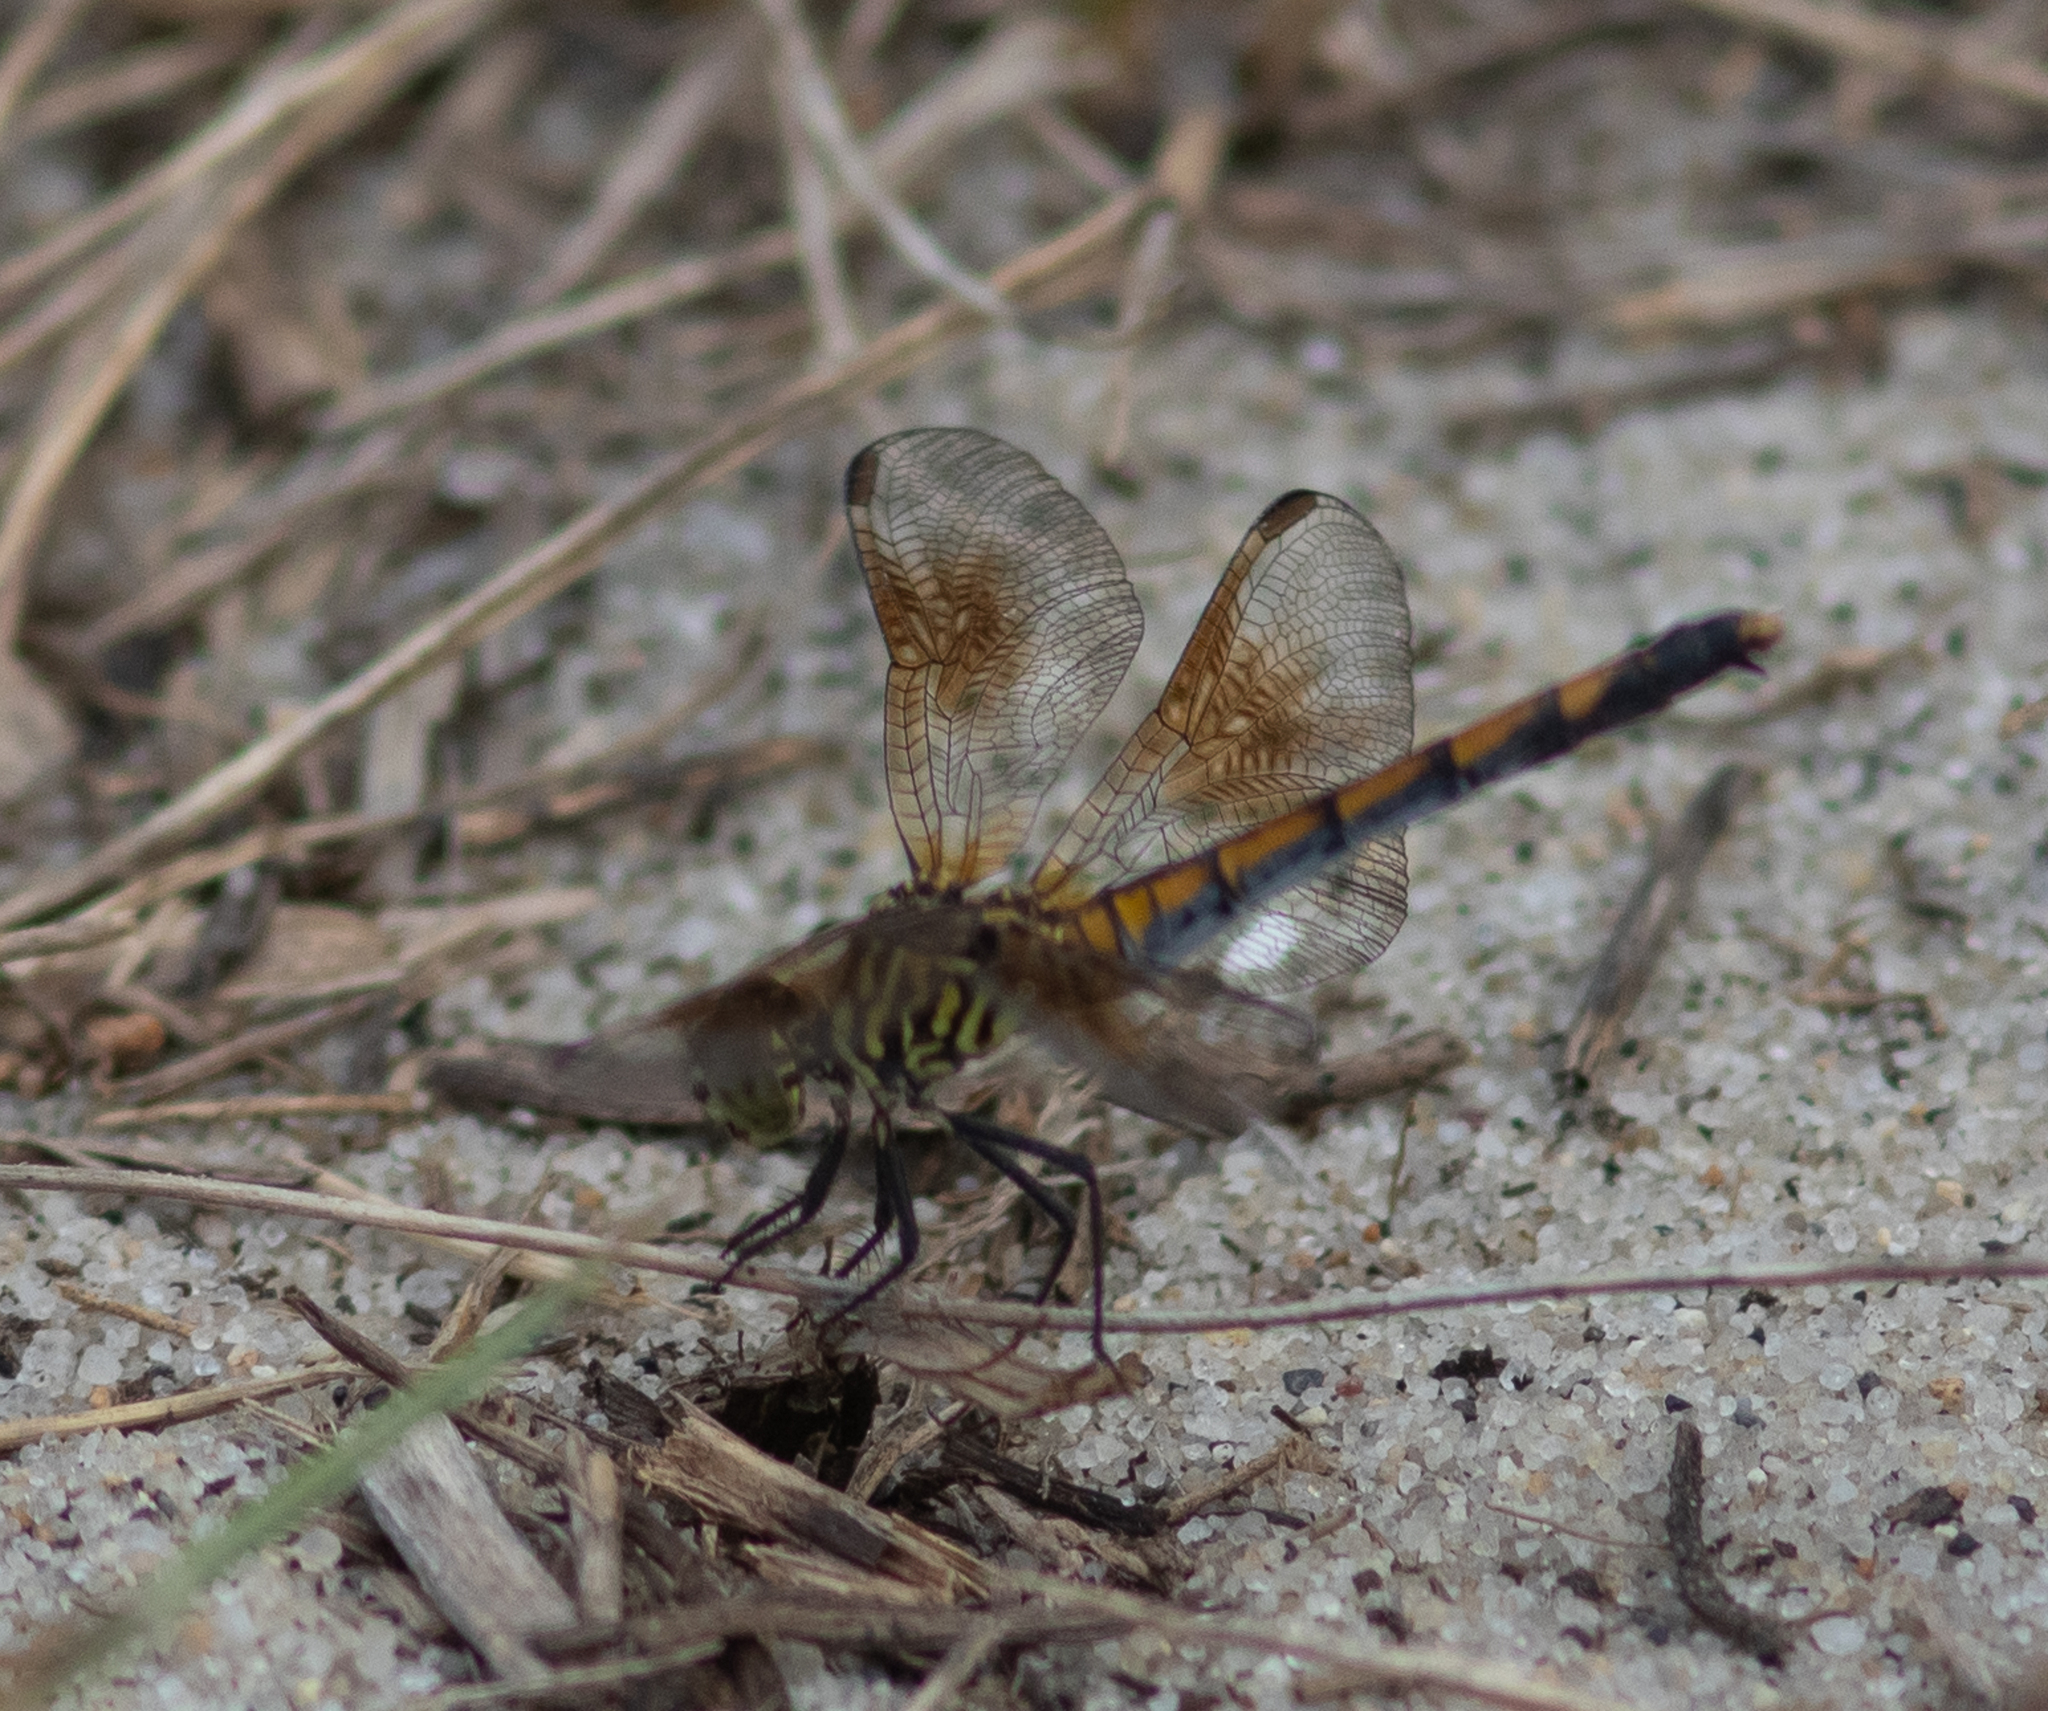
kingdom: Animalia
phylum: Arthropoda
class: Insecta
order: Odonata
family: Libellulidae
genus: Erythrodiplax
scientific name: Erythrodiplax berenice
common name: Seaside dragonlet
